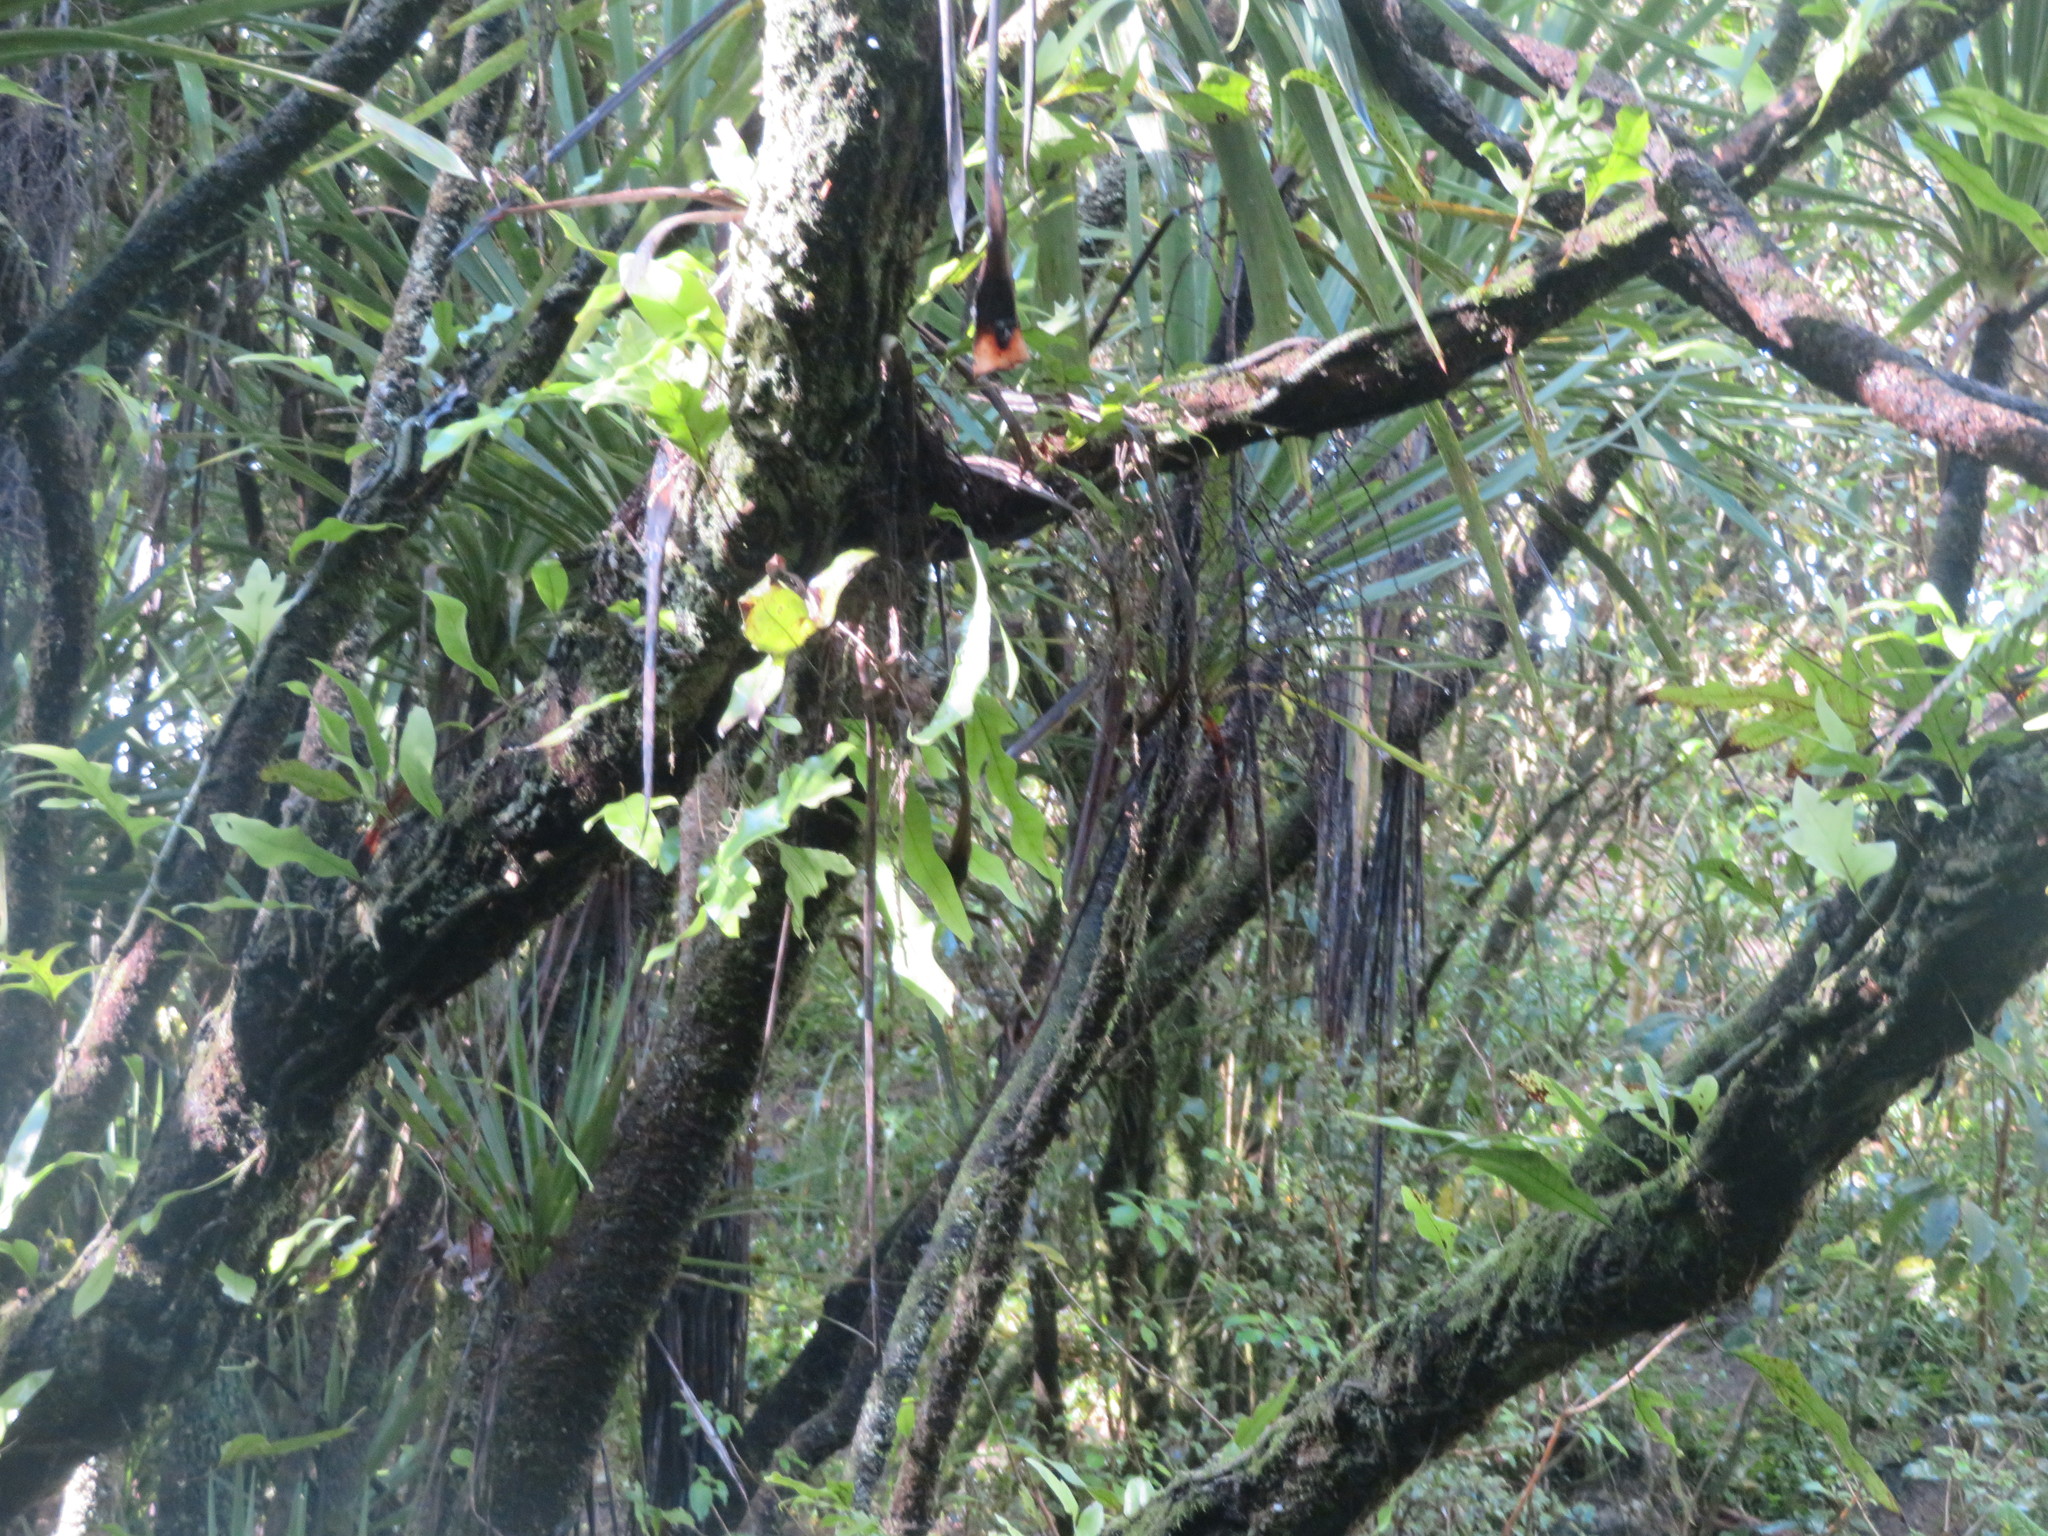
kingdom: Plantae
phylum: Tracheophyta
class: Polypodiopsida
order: Polypodiales
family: Polypodiaceae
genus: Lecanopteris
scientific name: Lecanopteris pustulata
